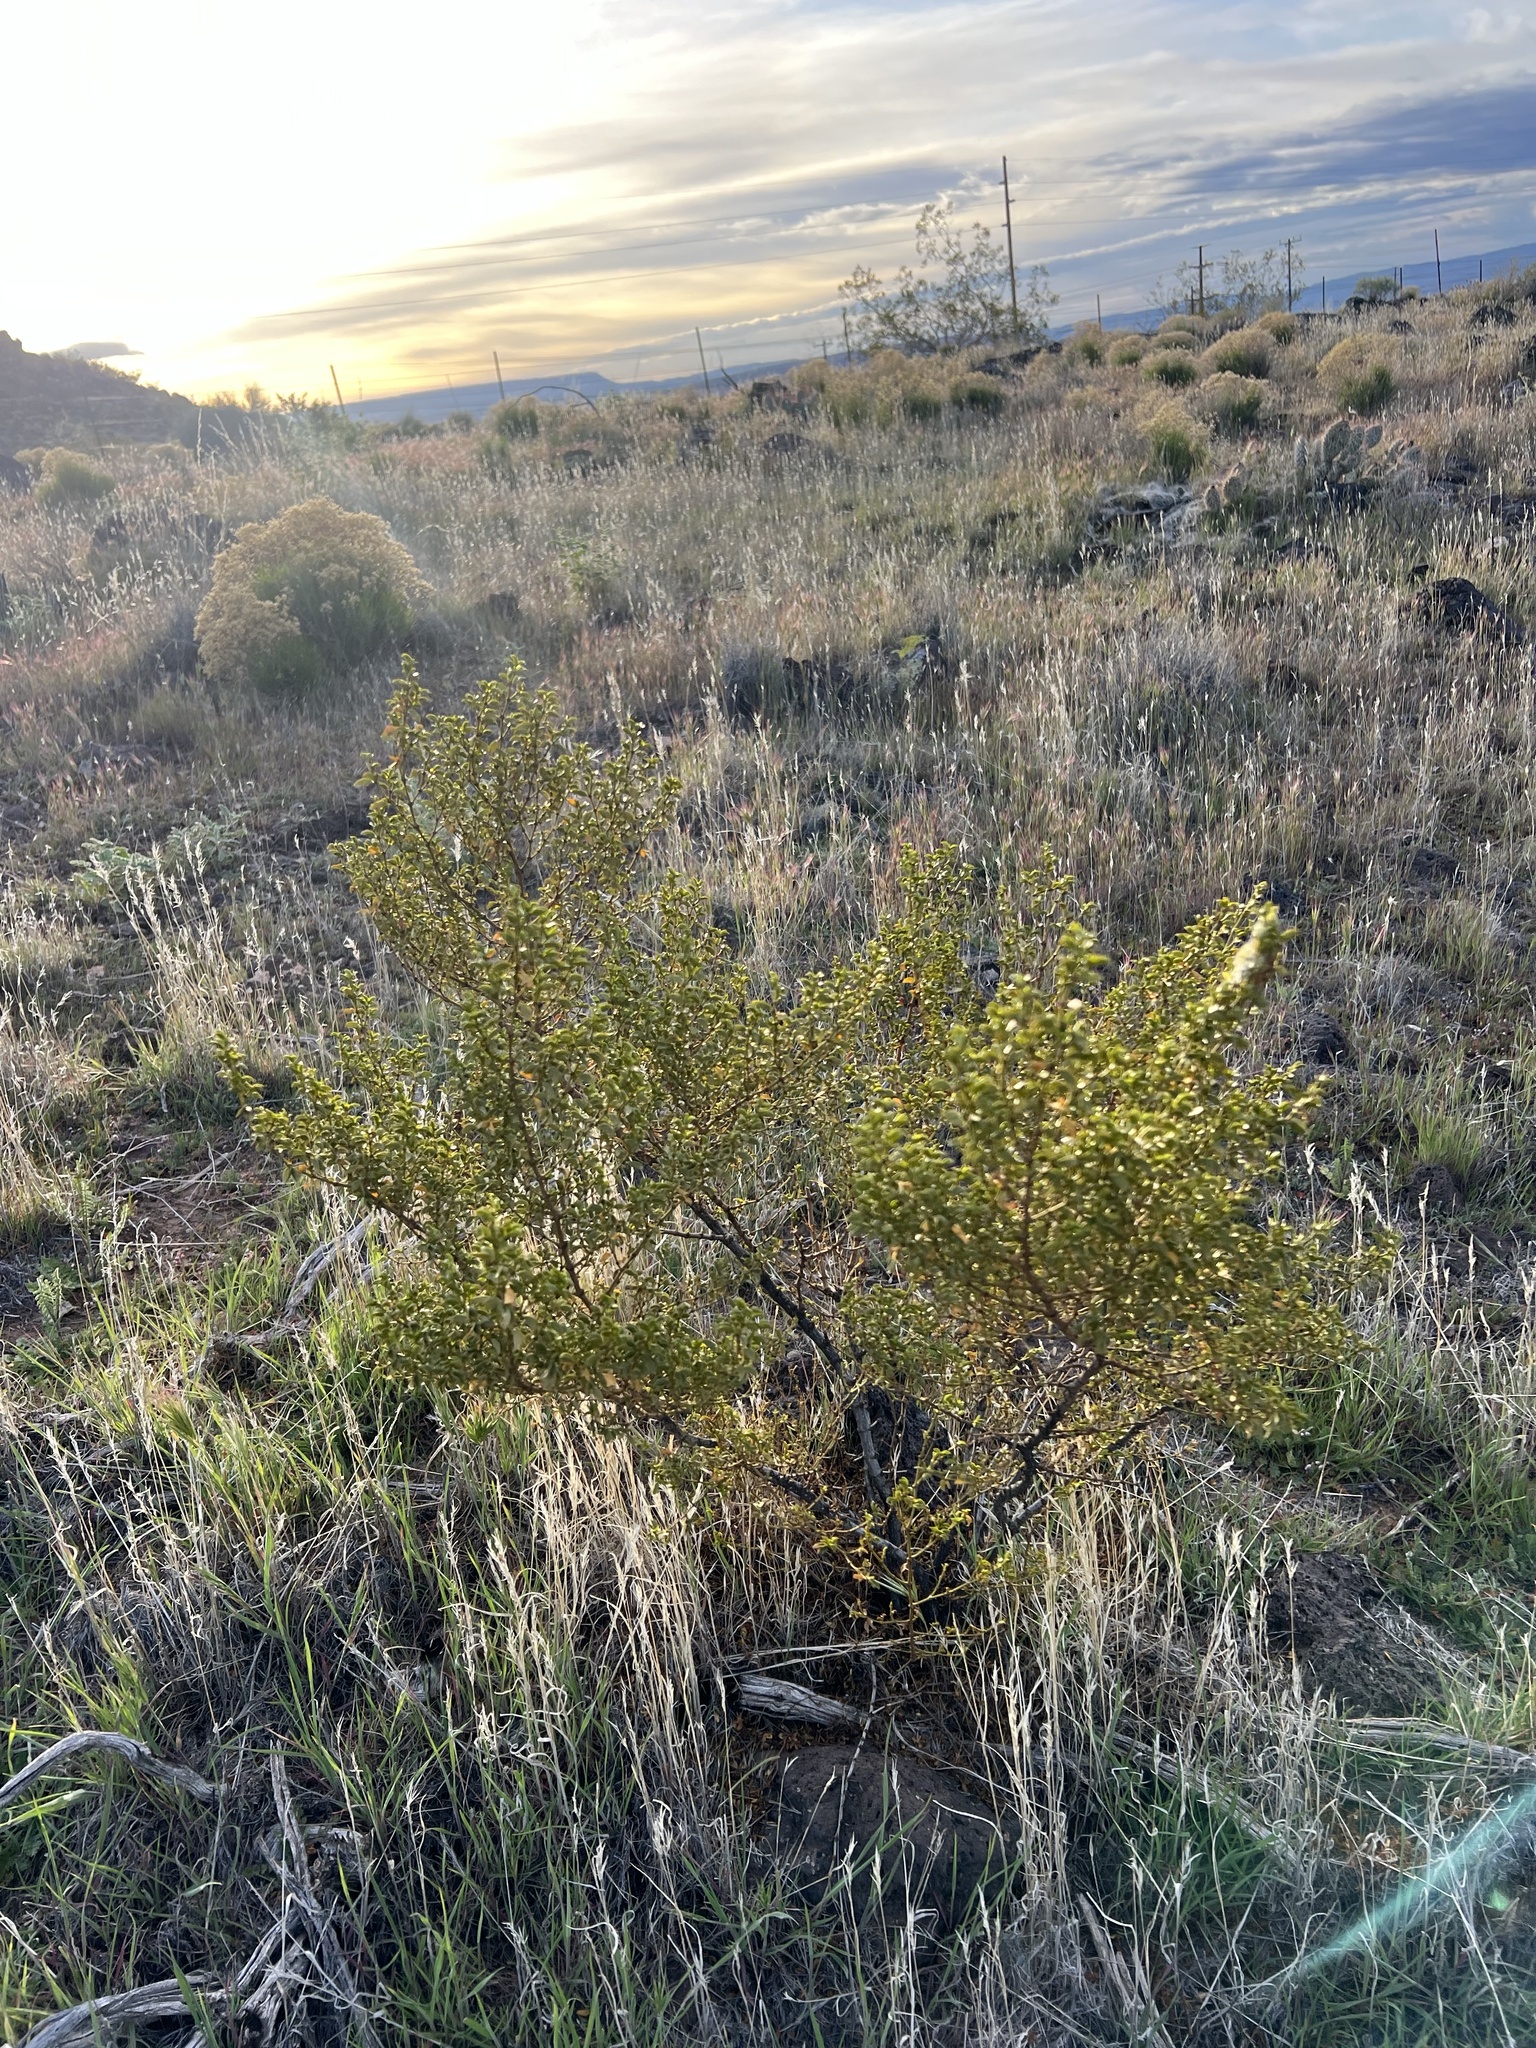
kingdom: Plantae
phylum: Tracheophyta
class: Magnoliopsida
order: Zygophyllales
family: Zygophyllaceae
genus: Larrea
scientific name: Larrea tridentata
